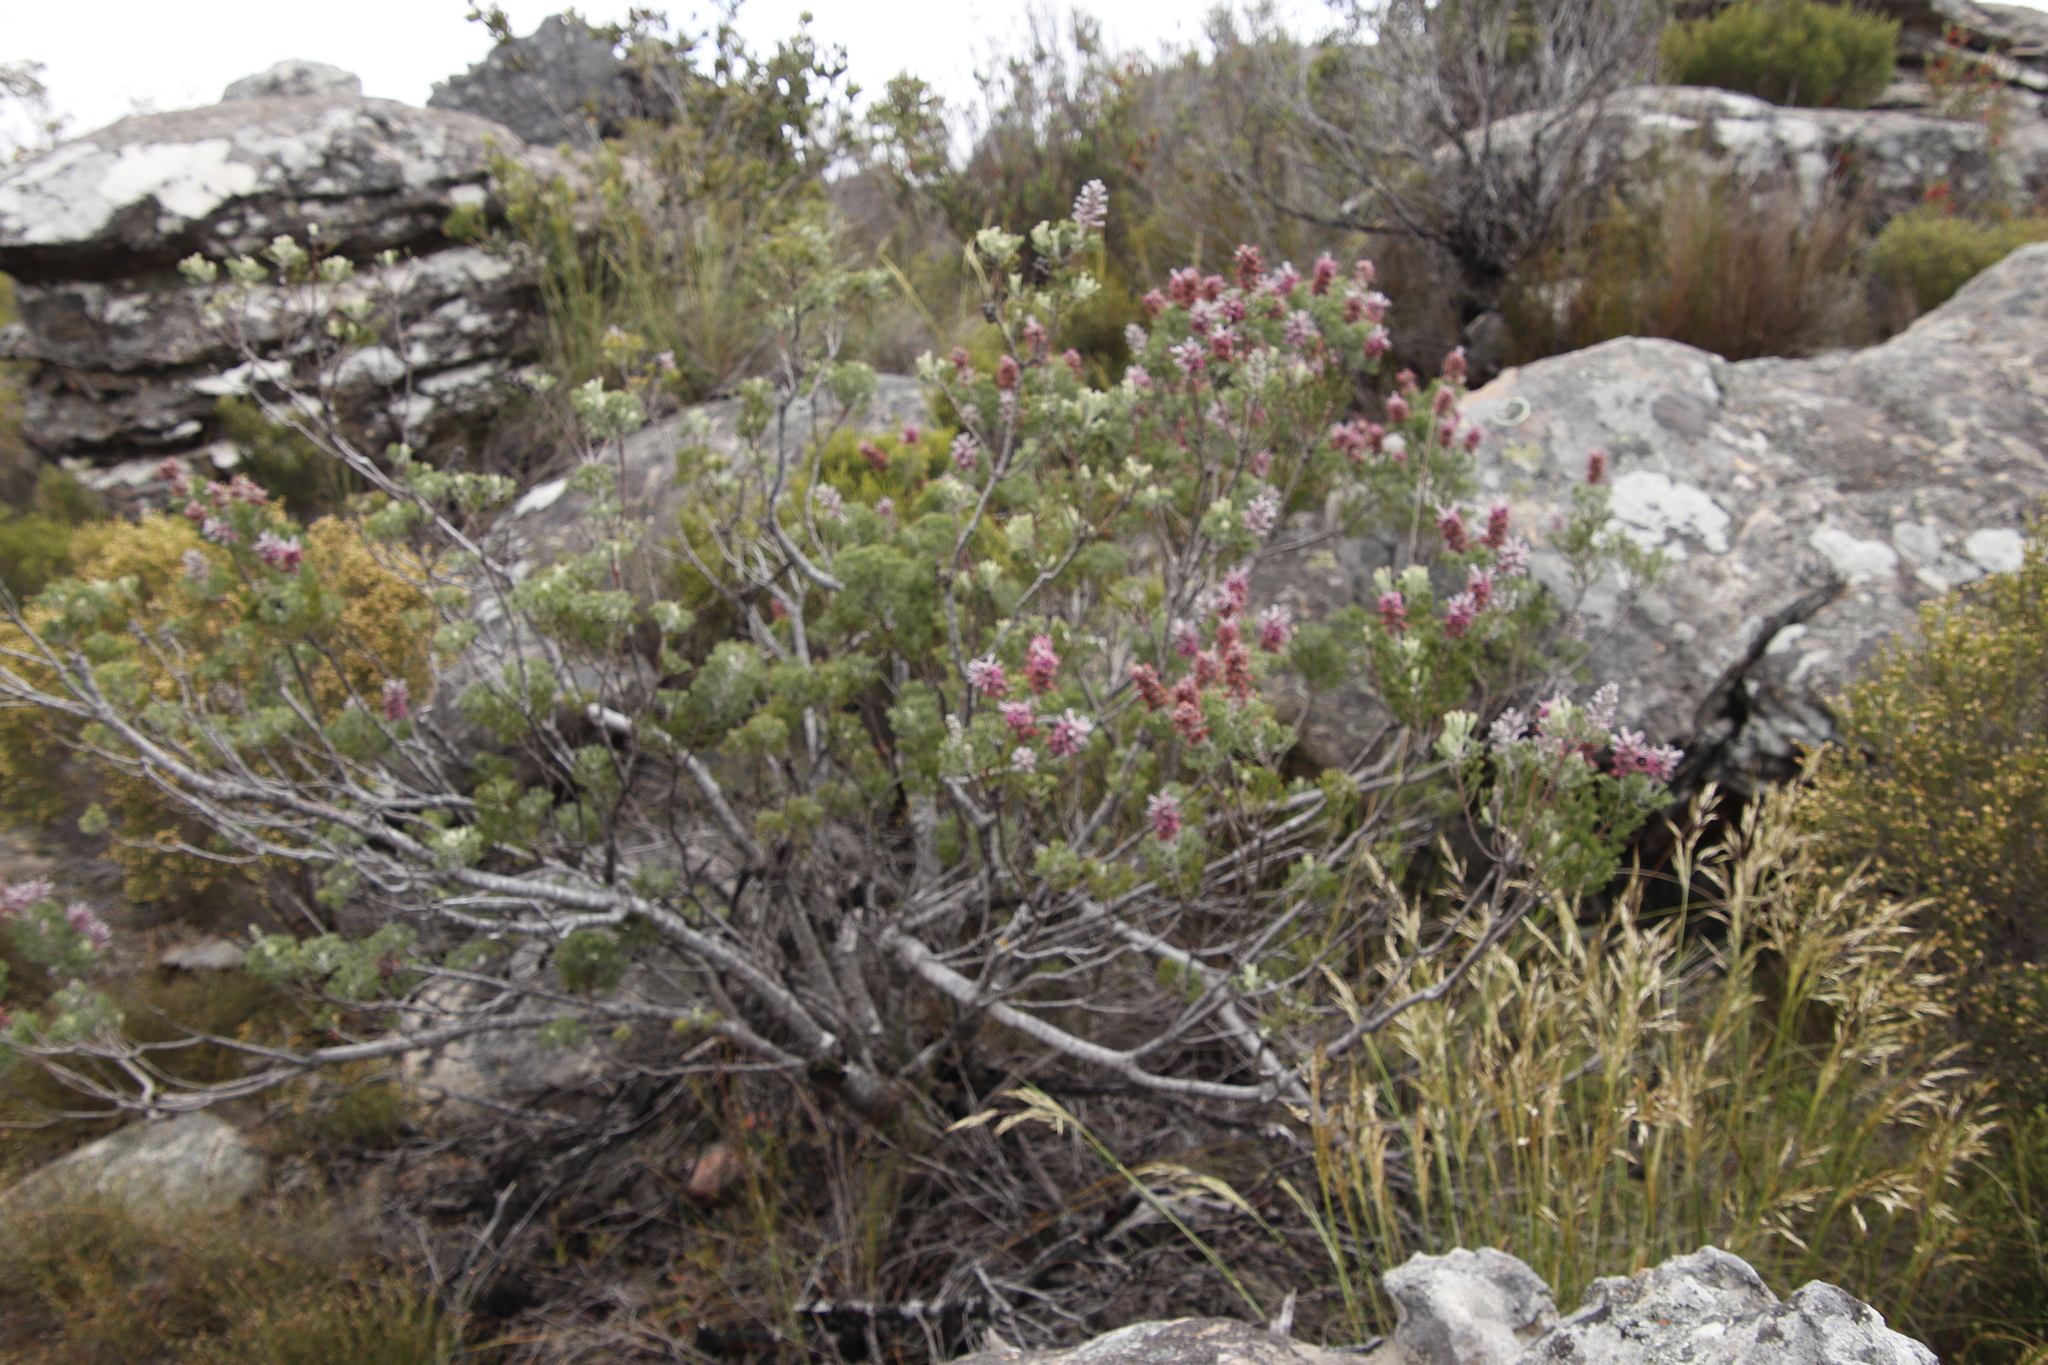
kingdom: Plantae
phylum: Tracheophyta
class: Magnoliopsida
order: Proteales
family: Proteaceae
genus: Paranomus
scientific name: Paranomus bracteolaris
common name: Bokkeveld tree sceptre
